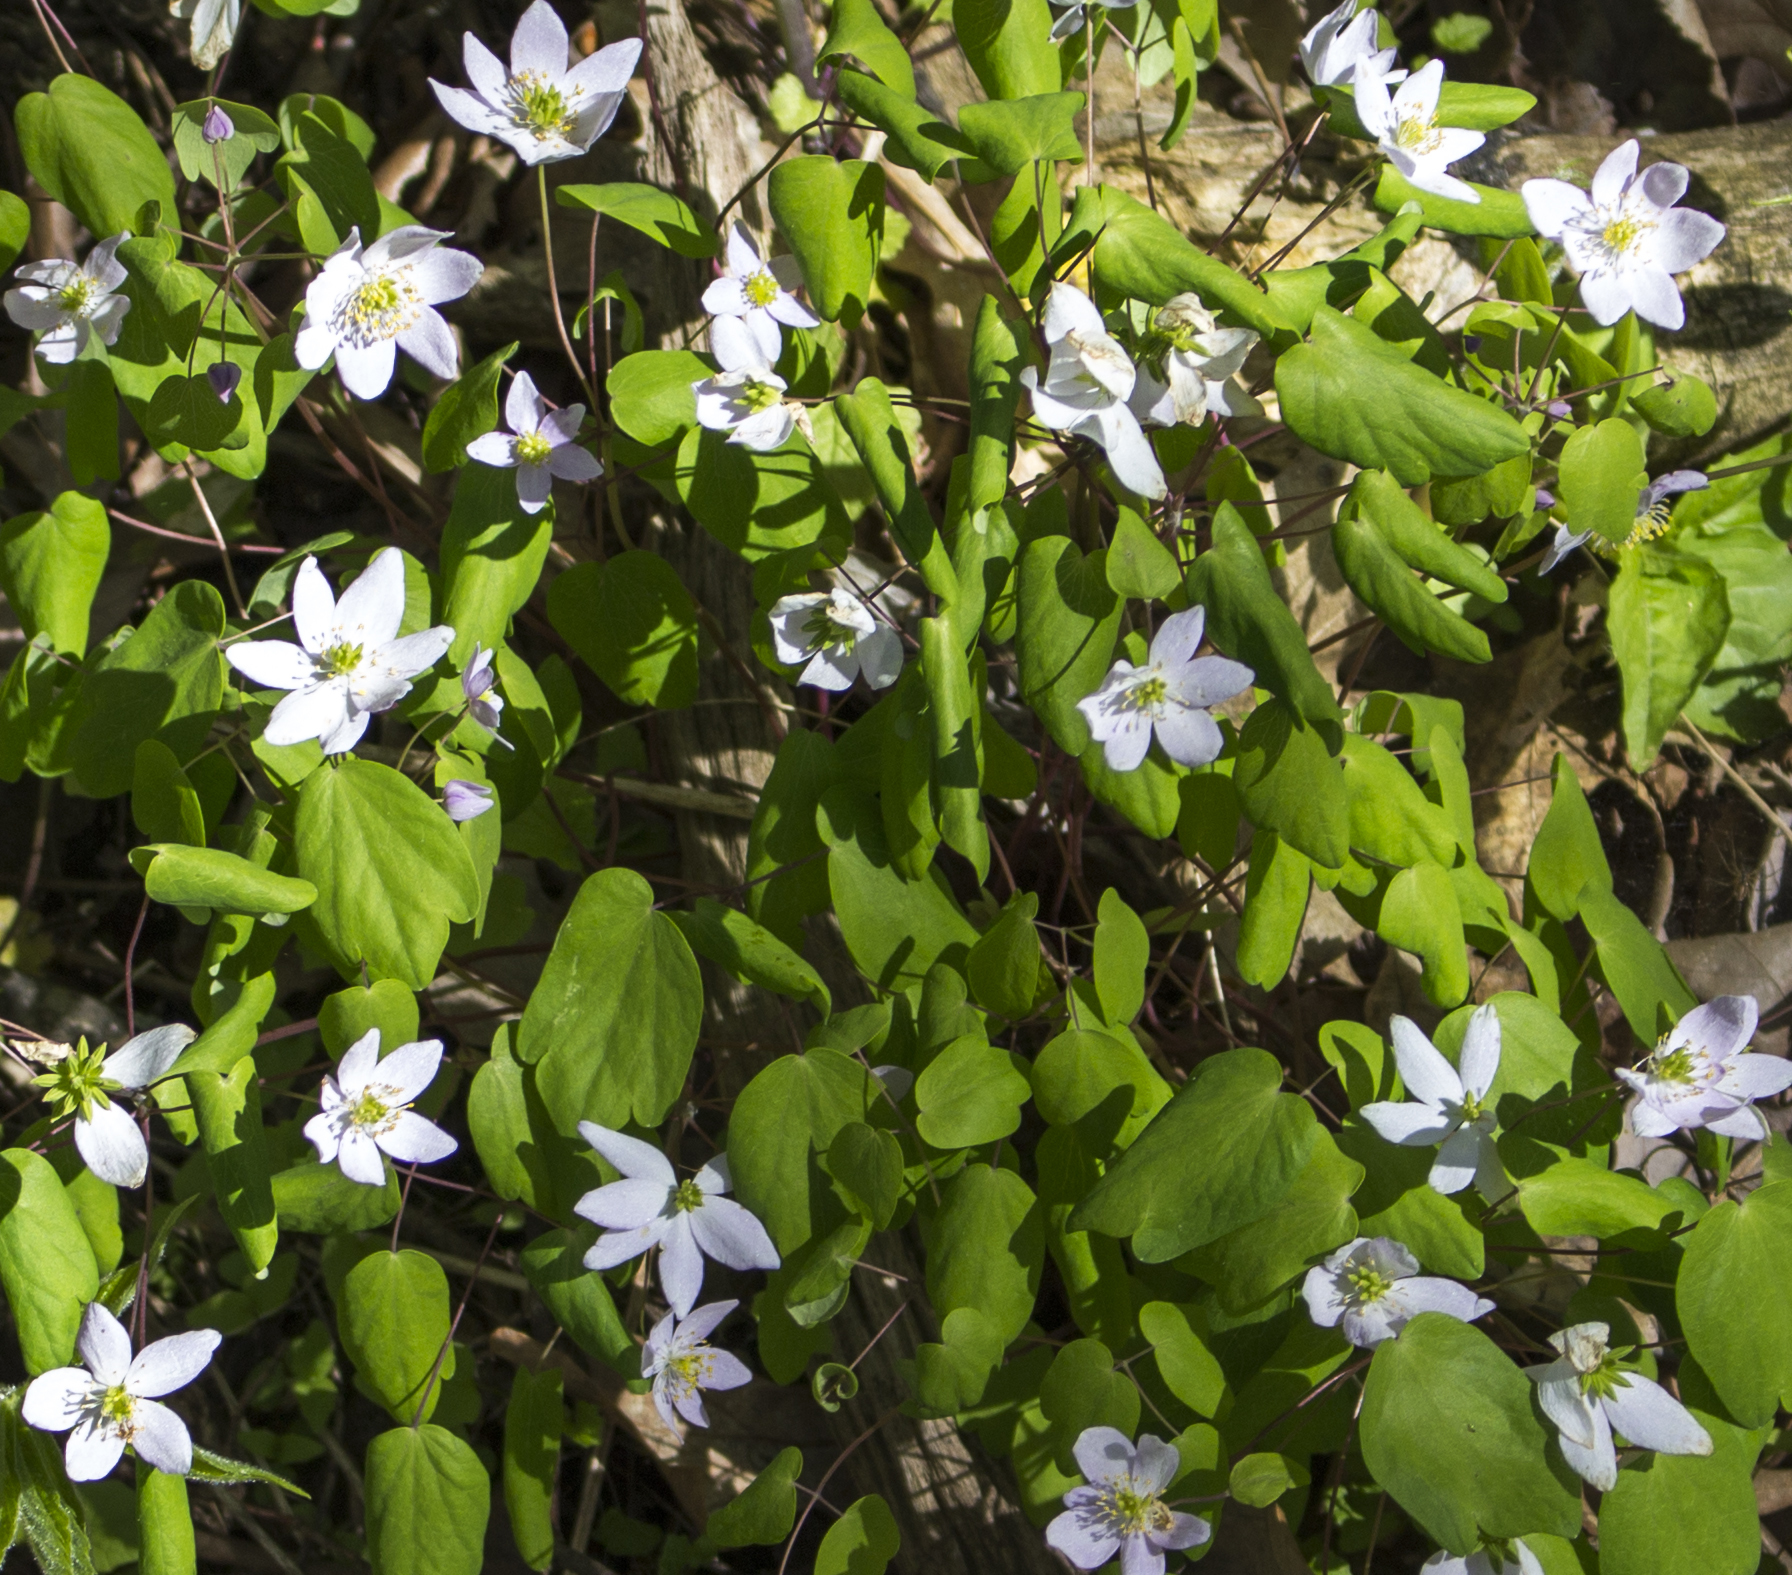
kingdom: Plantae
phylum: Tracheophyta
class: Magnoliopsida
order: Ranunculales
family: Ranunculaceae
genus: Thalictrum
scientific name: Thalictrum thalictroides
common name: Rue-anemone
